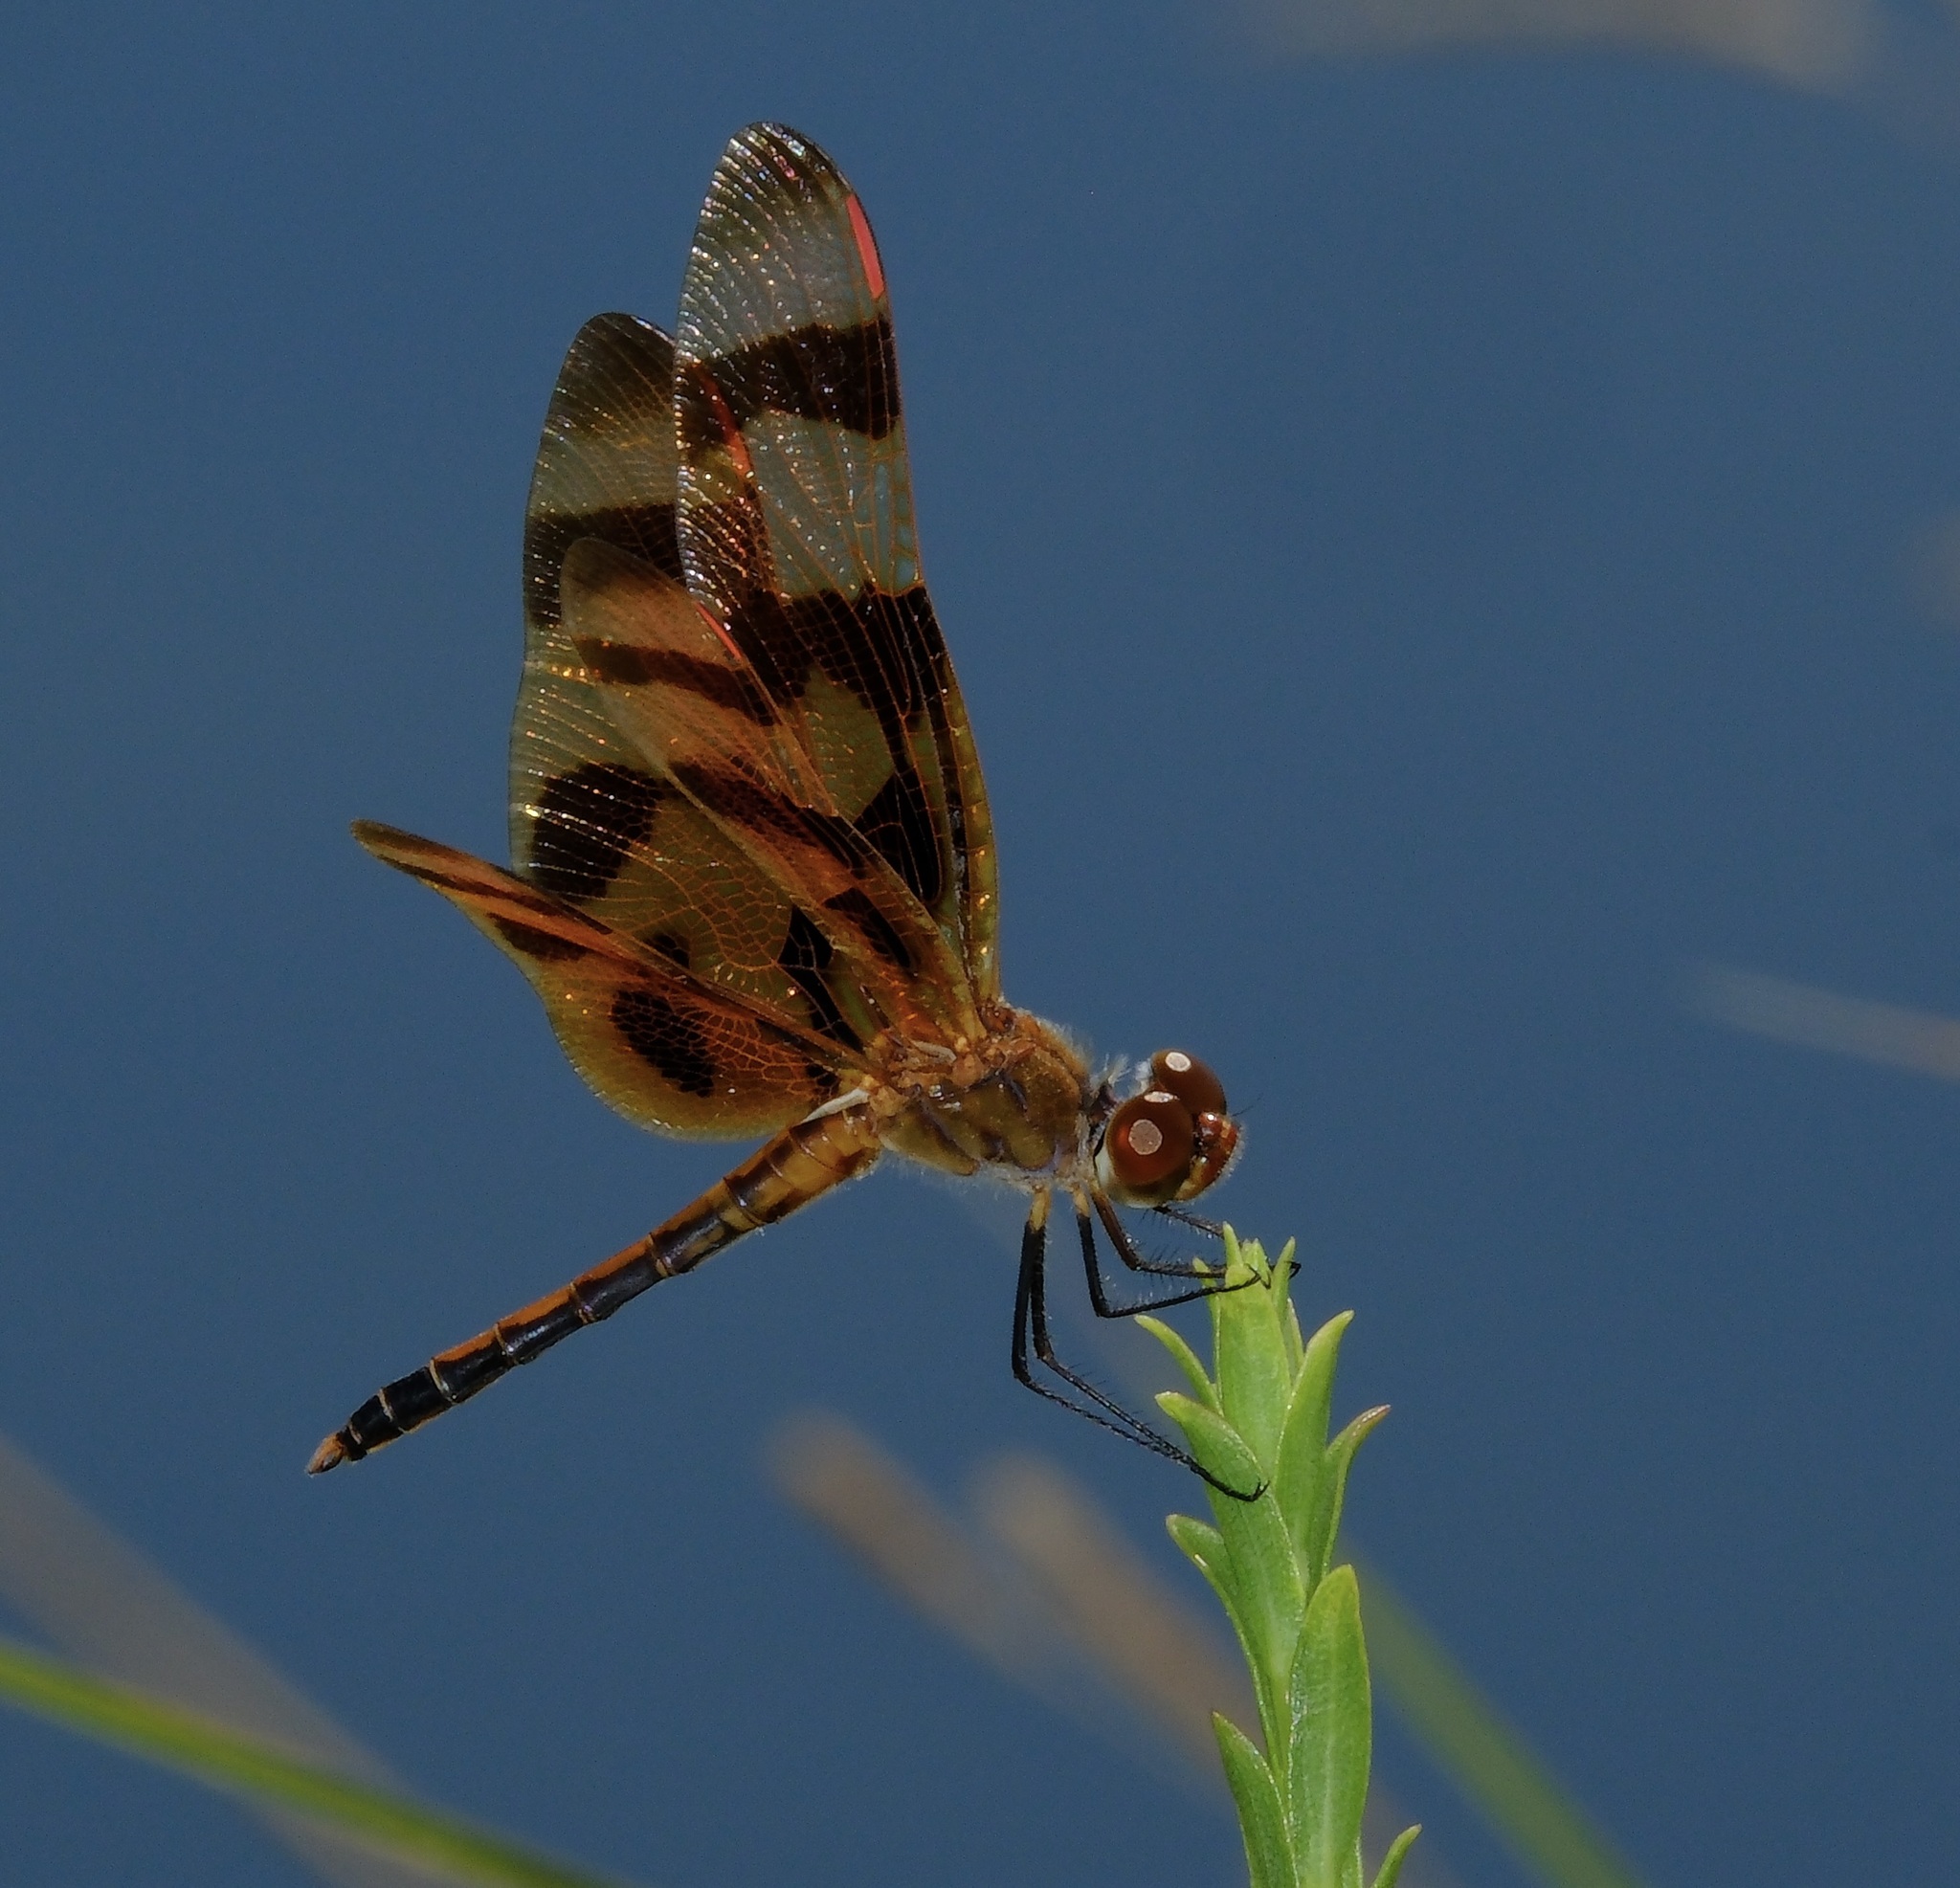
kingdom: Animalia
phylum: Arthropoda
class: Insecta
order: Odonata
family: Libellulidae
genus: Celithemis
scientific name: Celithemis eponina
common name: Halloween pennant
